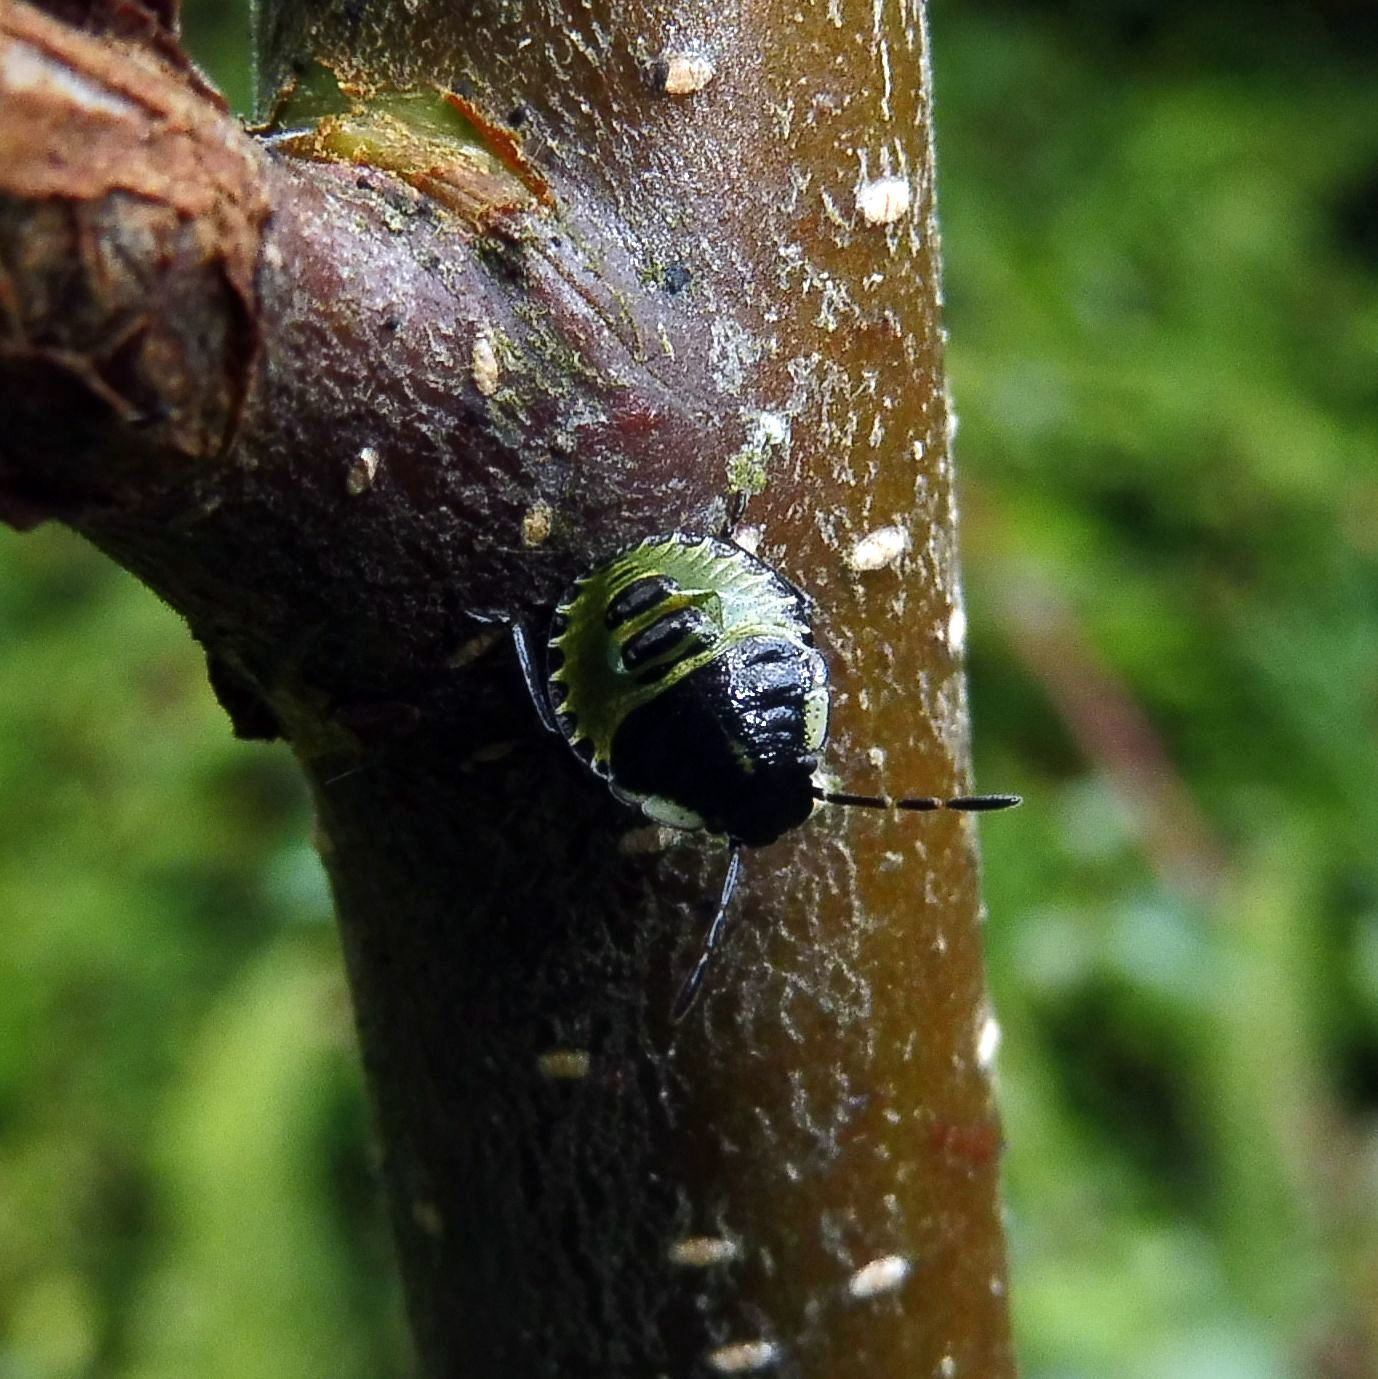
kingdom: Animalia
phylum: Arthropoda
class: Insecta
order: Hemiptera
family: Pentatomidae
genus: Palomena
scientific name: Palomena prasina
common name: Green shieldbug
